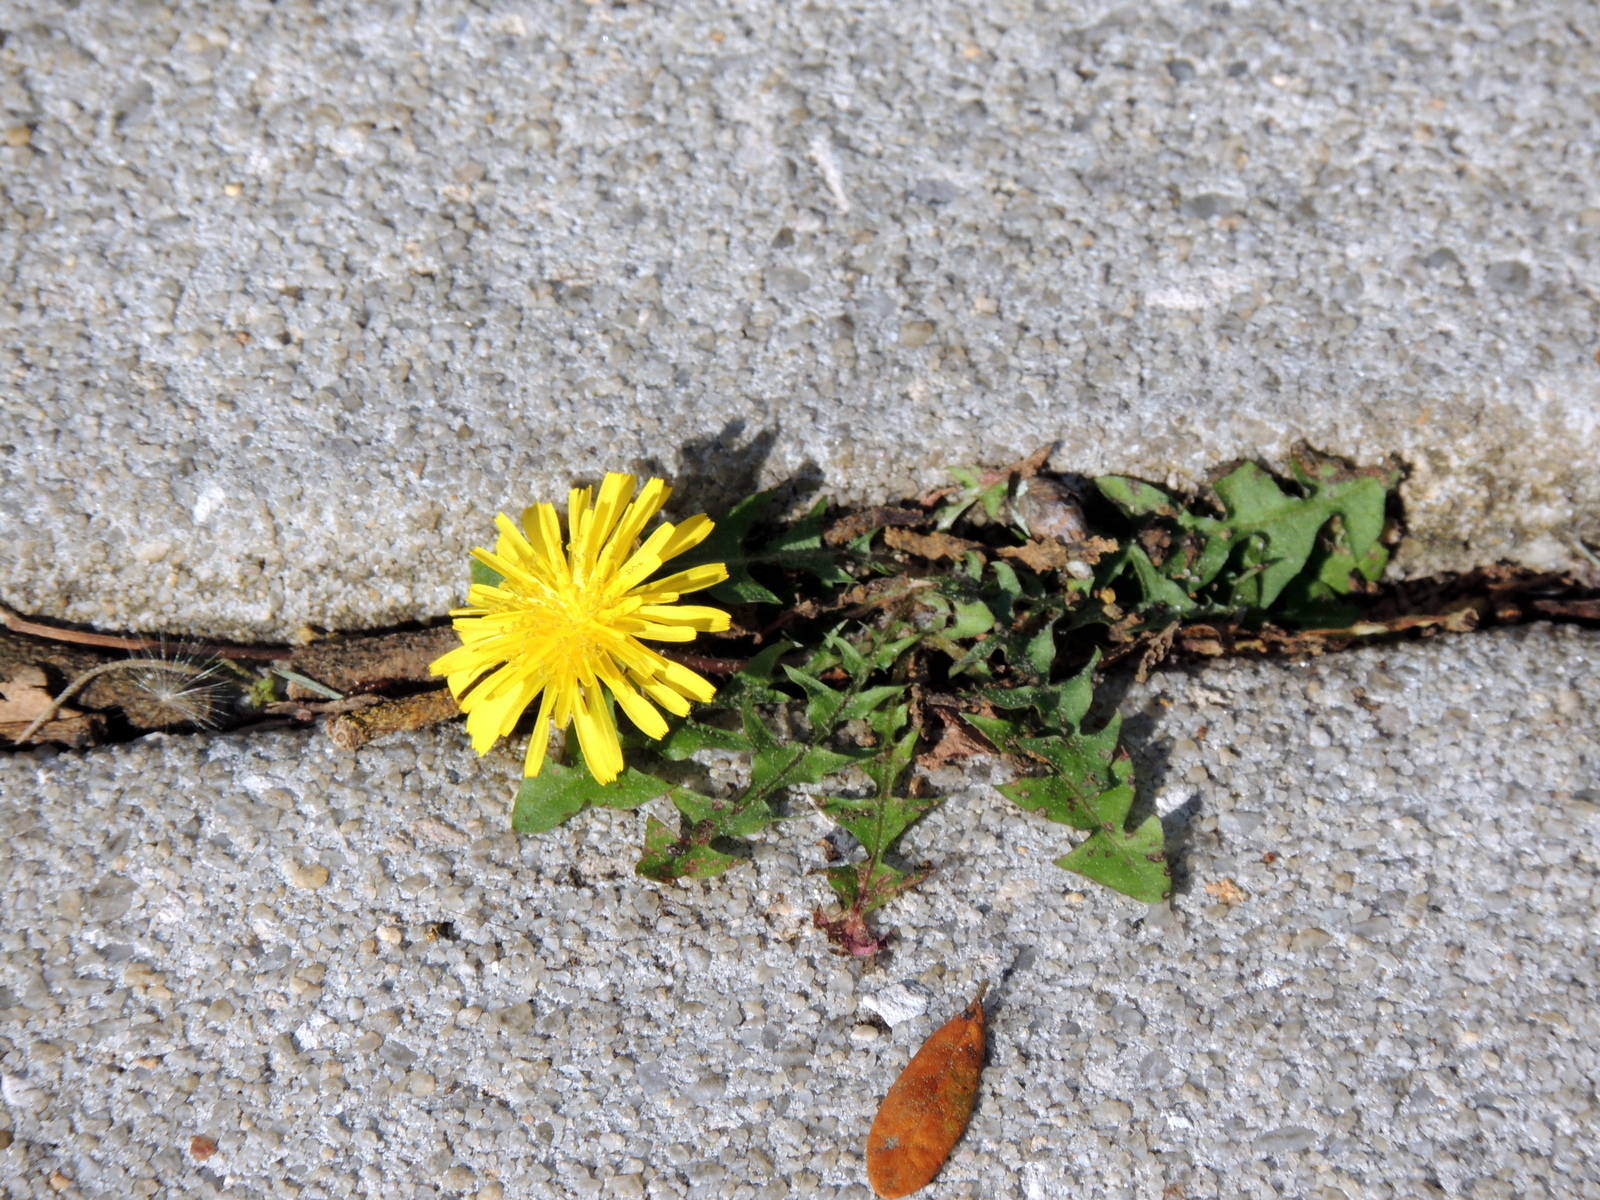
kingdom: Plantae
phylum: Tracheophyta
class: Magnoliopsida
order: Asterales
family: Asteraceae
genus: Taraxacum
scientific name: Taraxacum officinale
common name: Common dandelion
